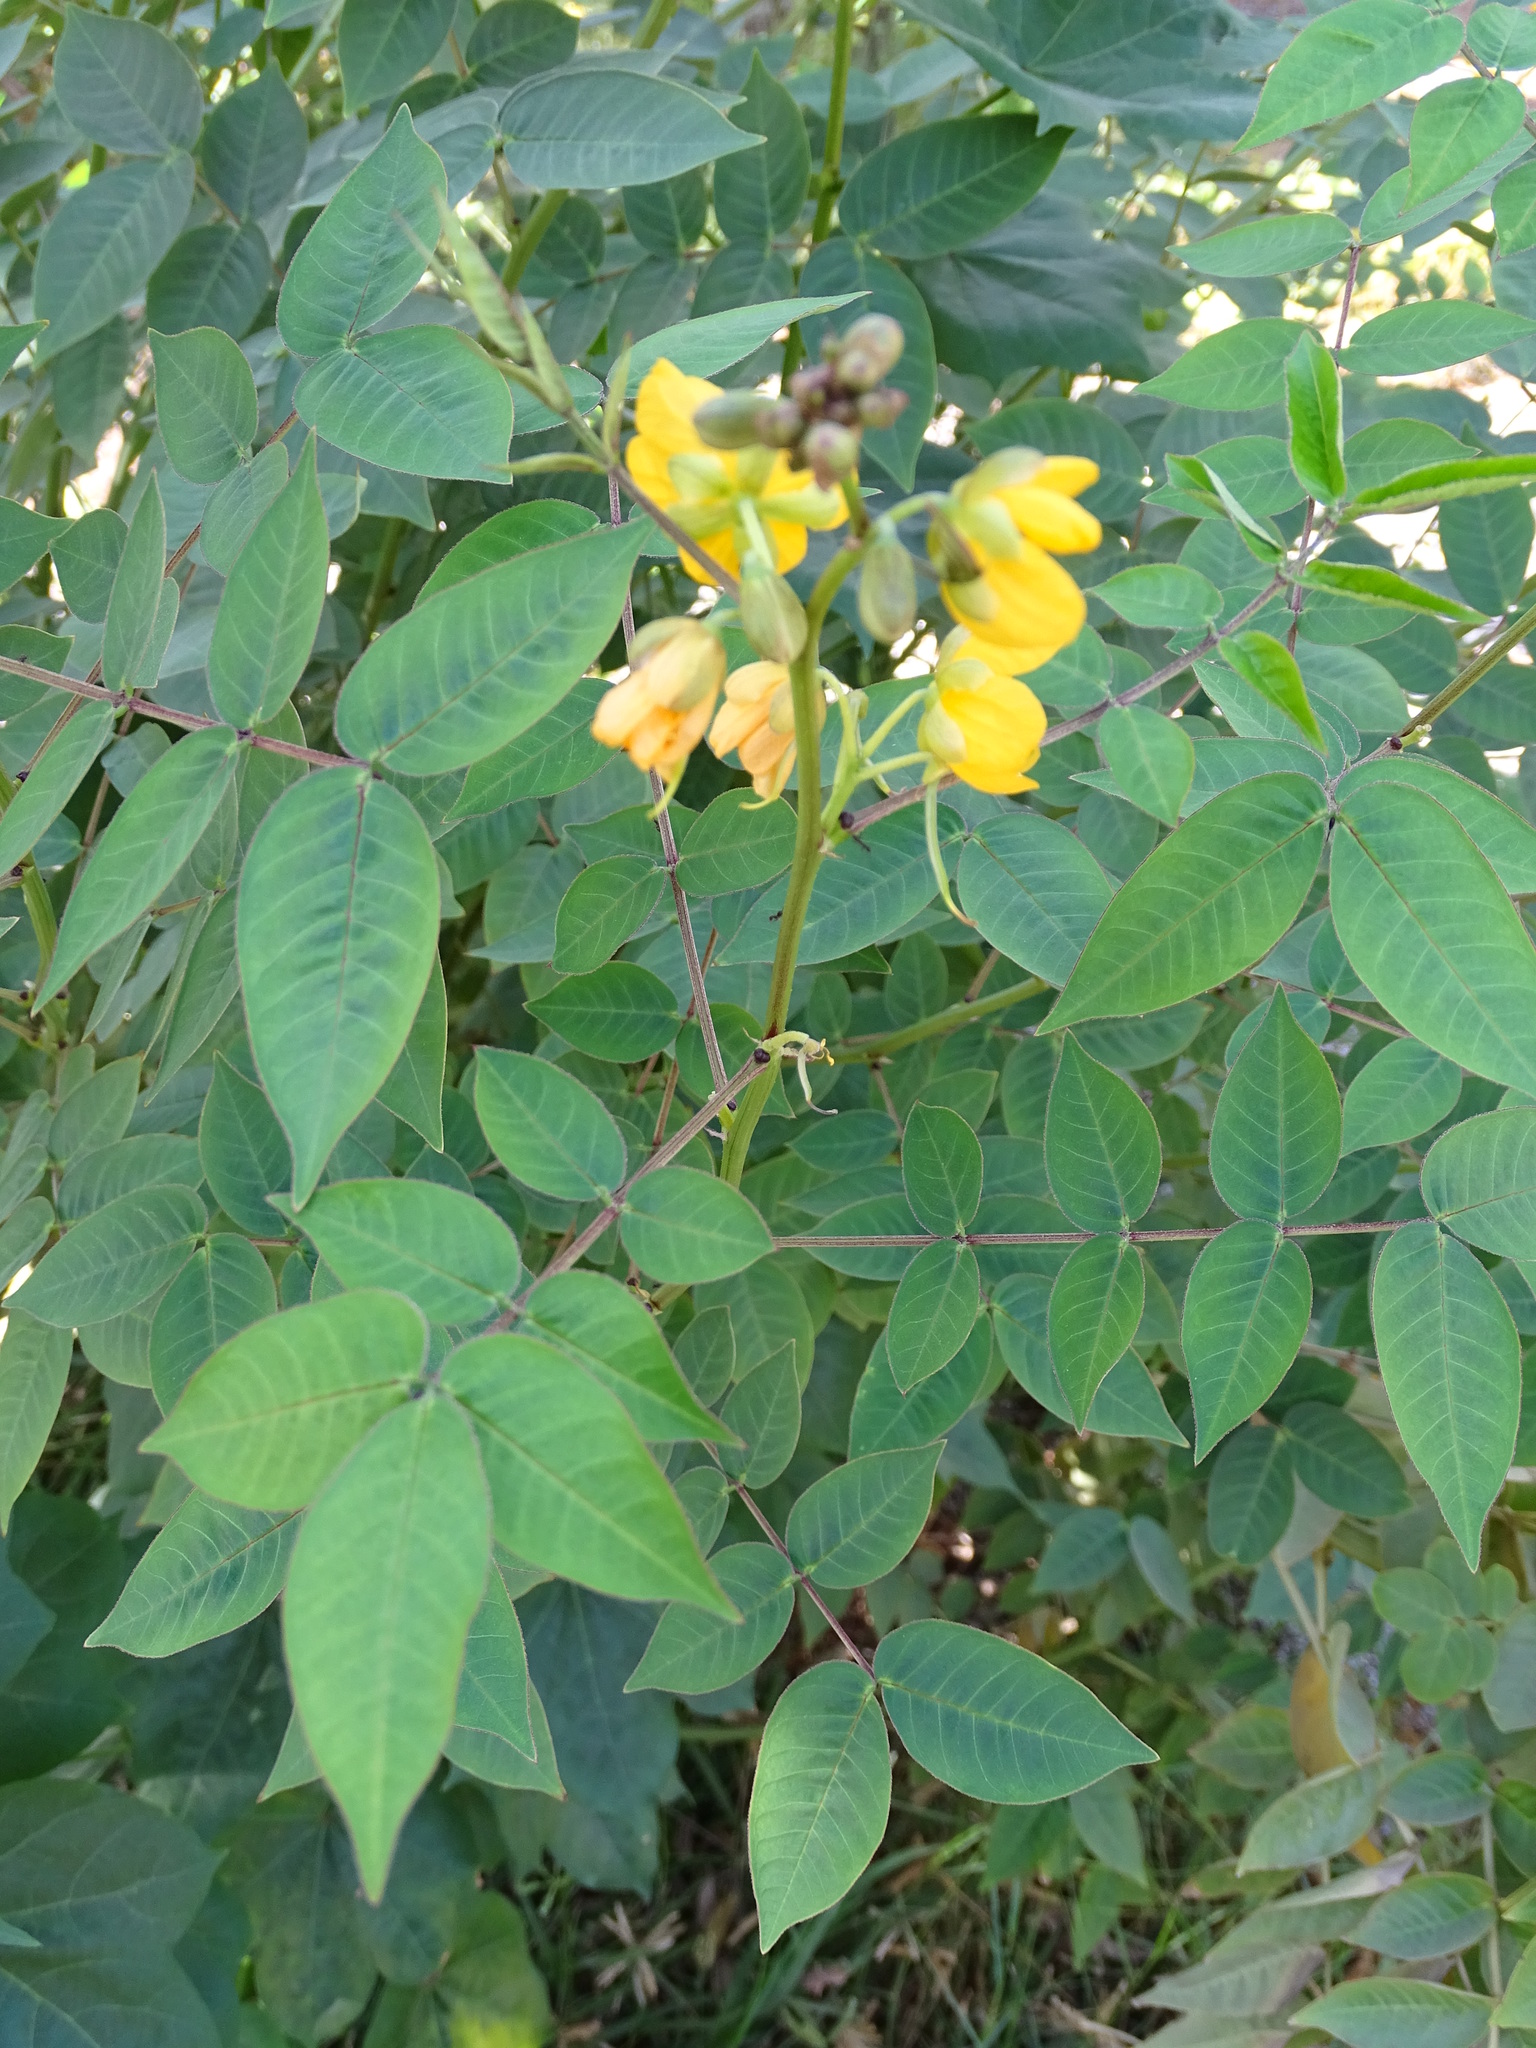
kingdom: Plantae
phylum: Tracheophyta
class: Magnoliopsida
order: Fabales
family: Fabaceae
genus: Senna
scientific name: Senna occidentalis
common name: Septicweed
